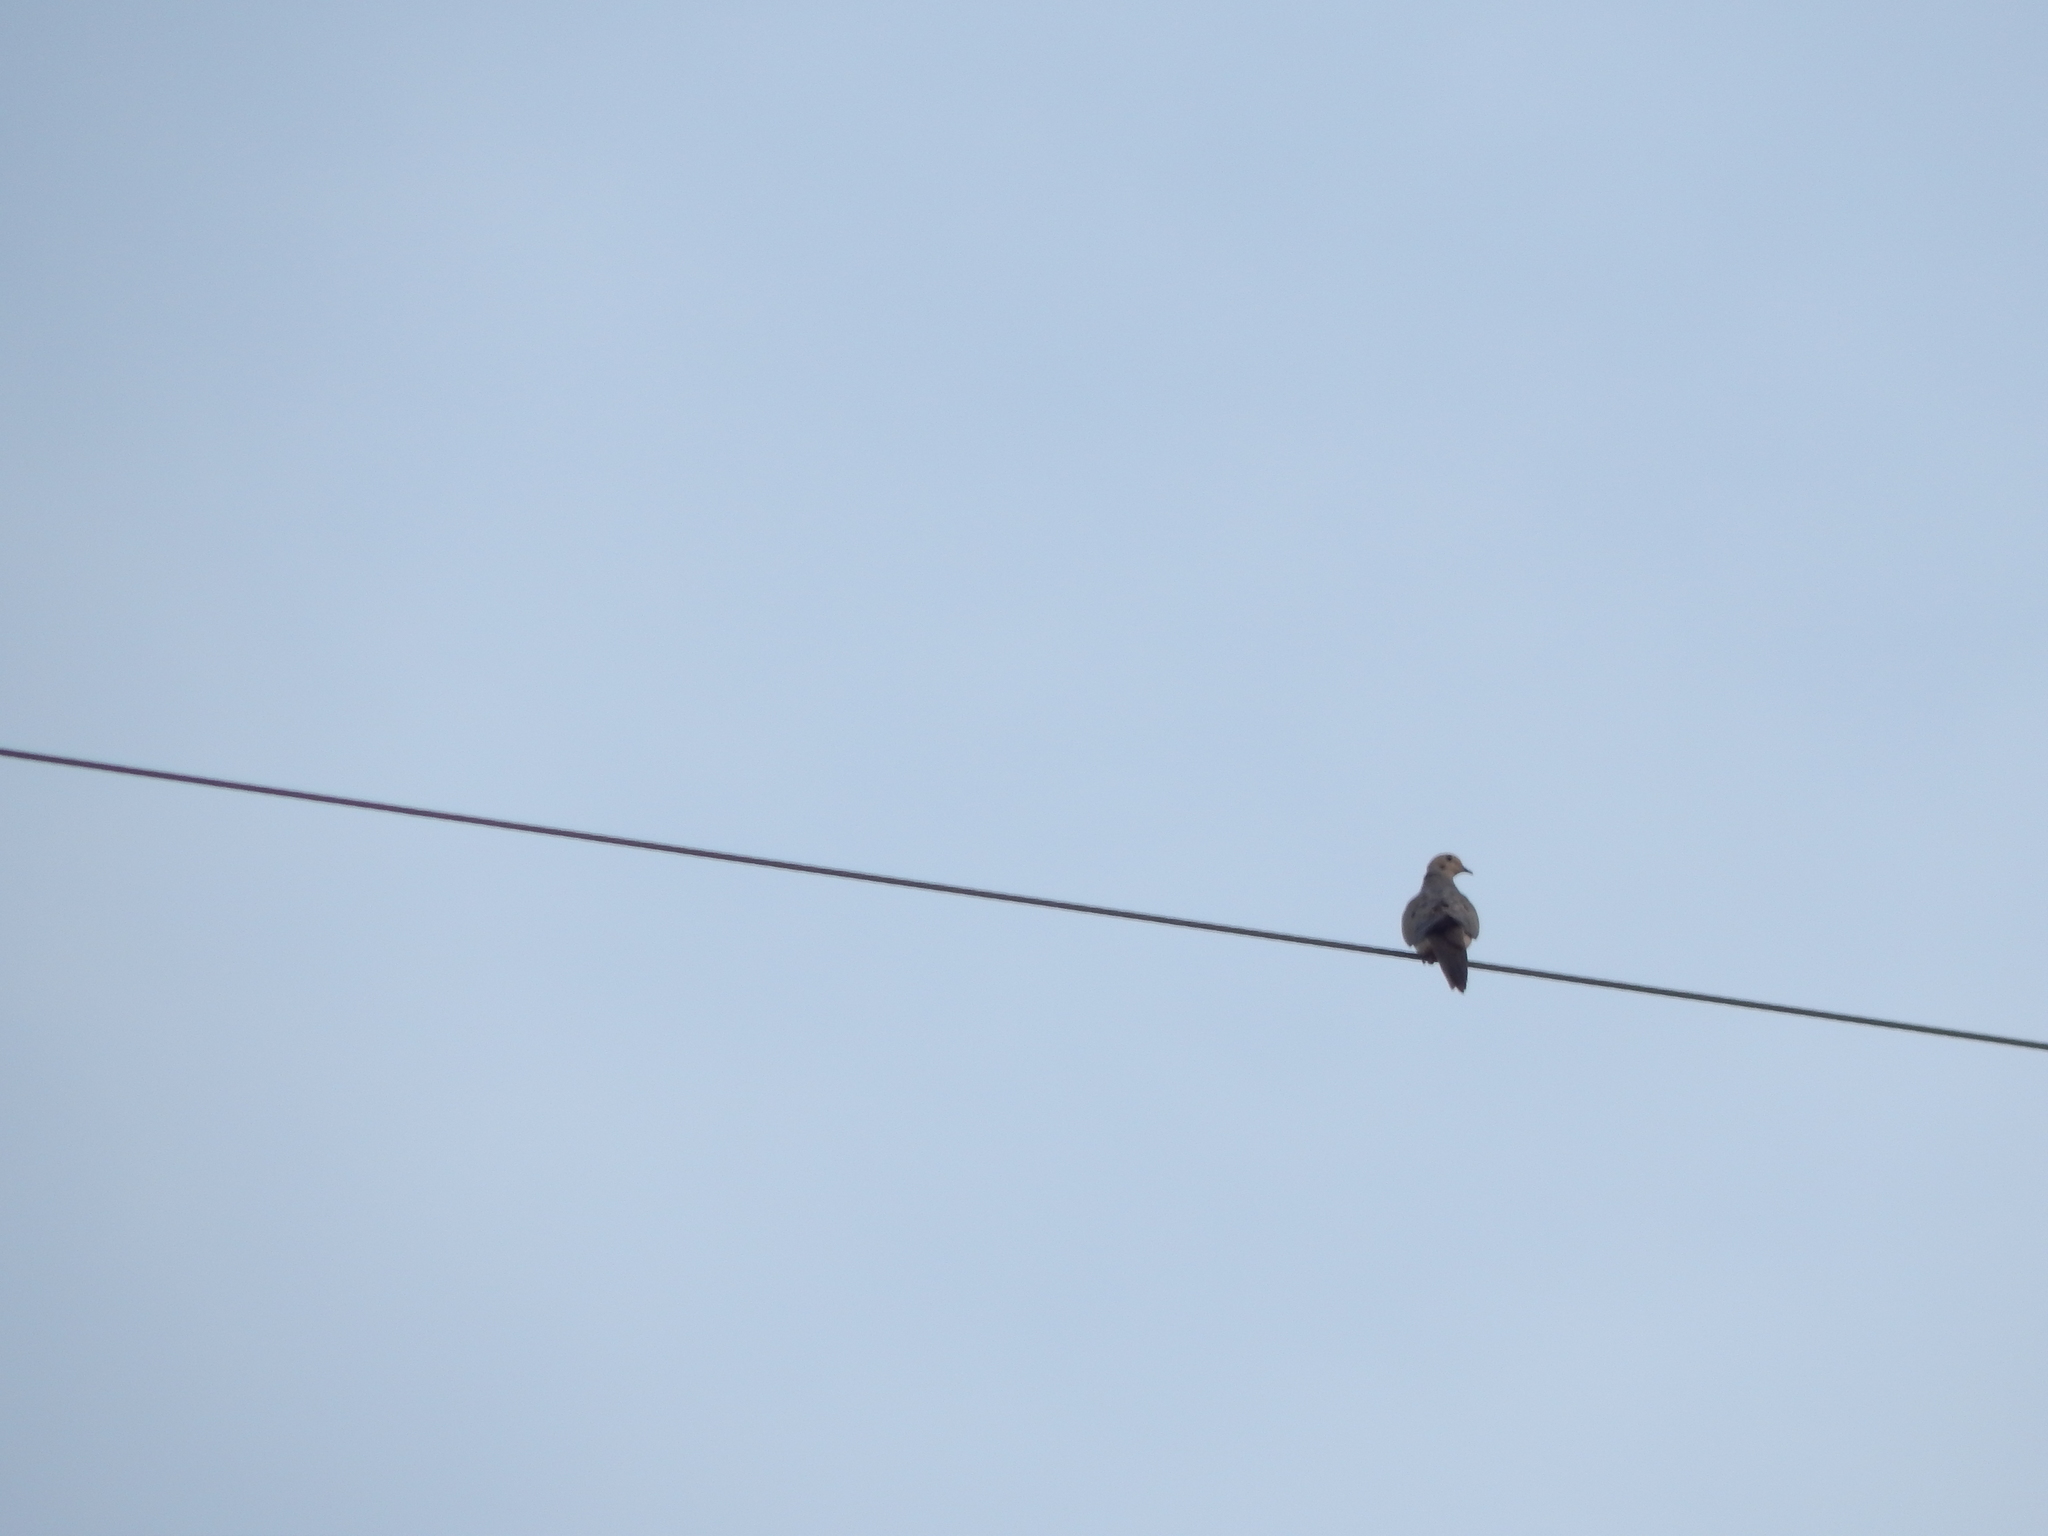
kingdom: Animalia
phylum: Chordata
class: Aves
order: Columbiformes
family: Columbidae
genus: Zenaida
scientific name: Zenaida macroura
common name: Mourning dove
